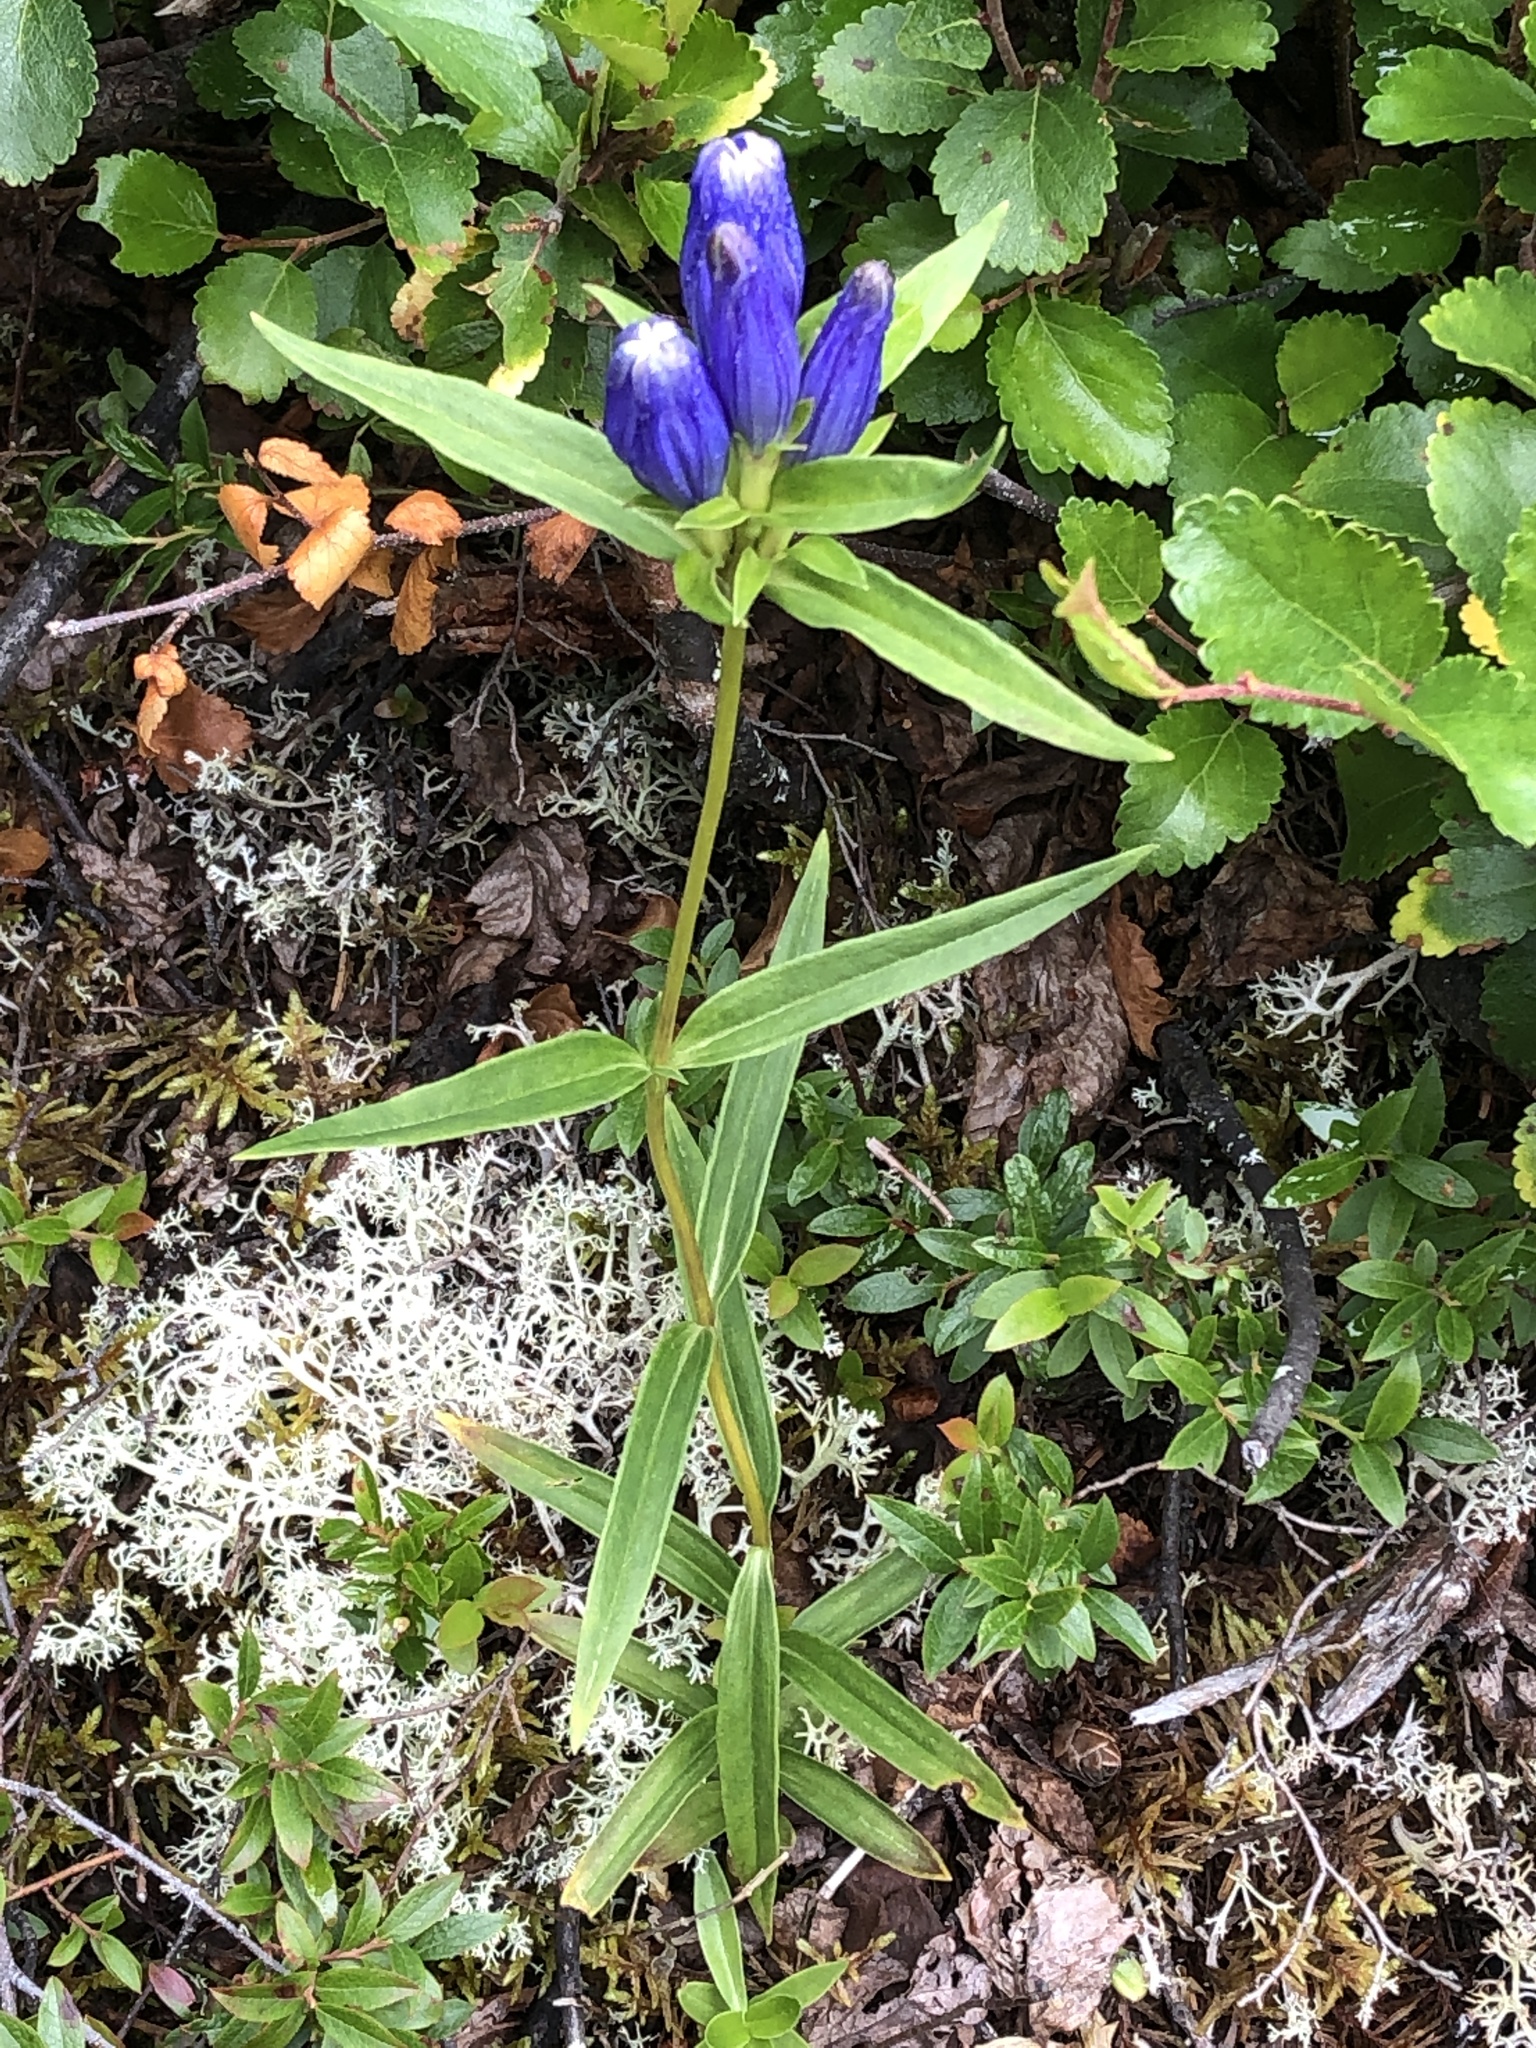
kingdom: Plantae
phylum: Tracheophyta
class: Magnoliopsida
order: Gentianales
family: Gentianaceae
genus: Gentiana
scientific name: Gentiana linearis
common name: Bastard gentian
